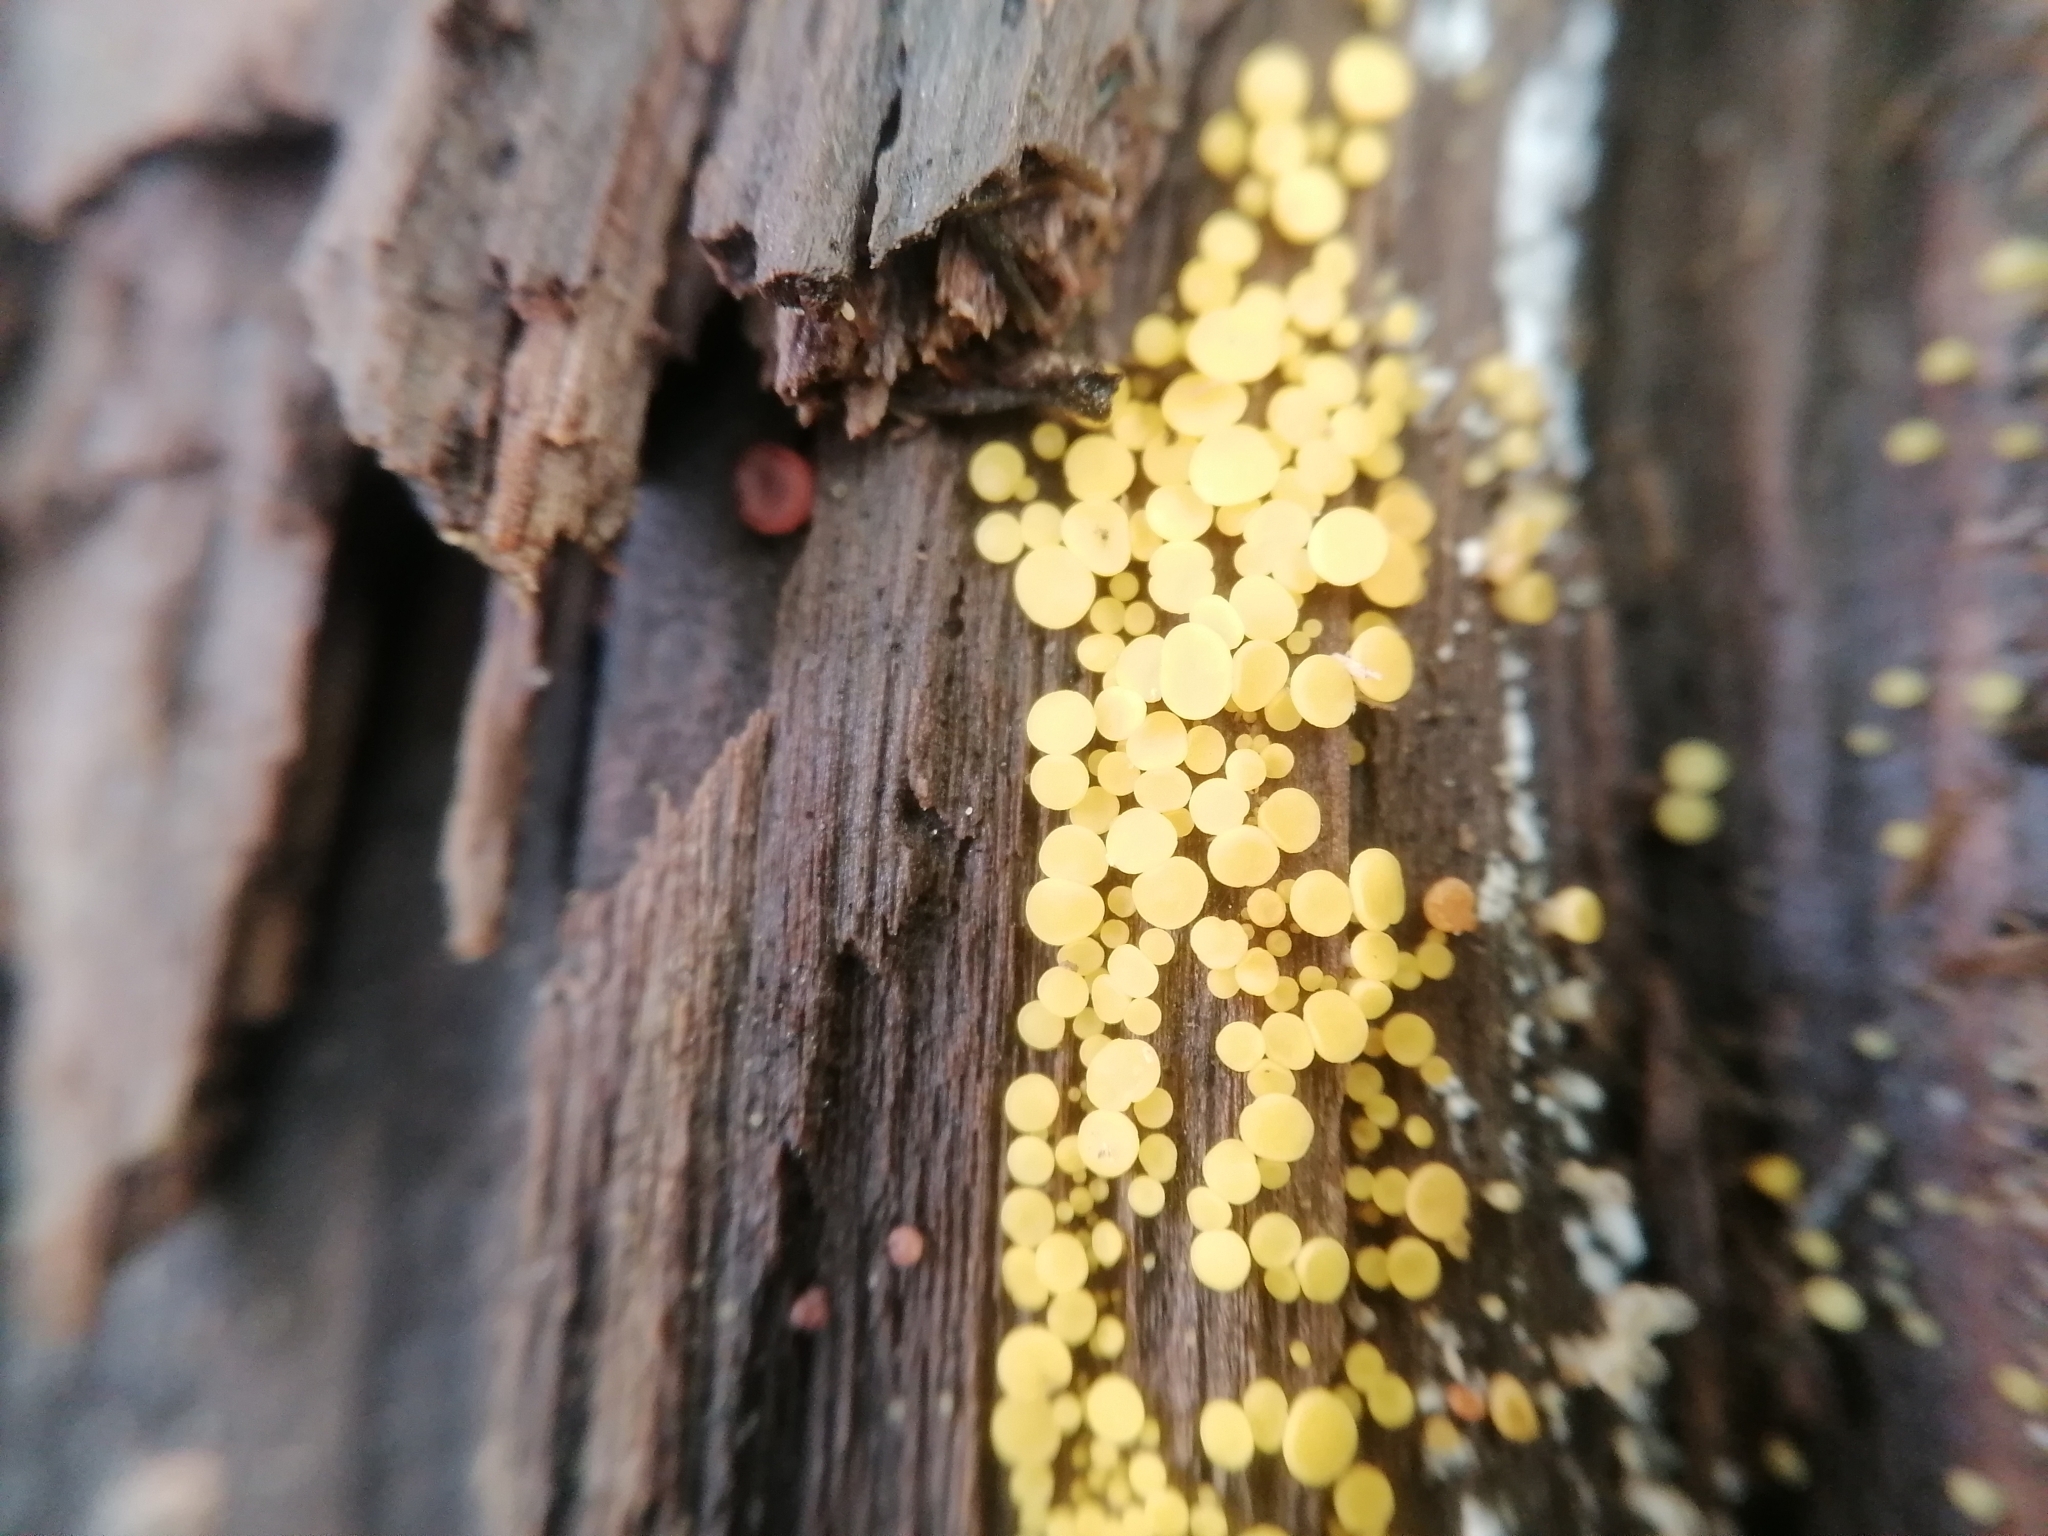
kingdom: Fungi
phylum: Ascomycota
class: Leotiomycetes
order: Helotiales
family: Pezizellaceae
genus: Calycina
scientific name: Calycina citrina
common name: Yellow fairy cups
